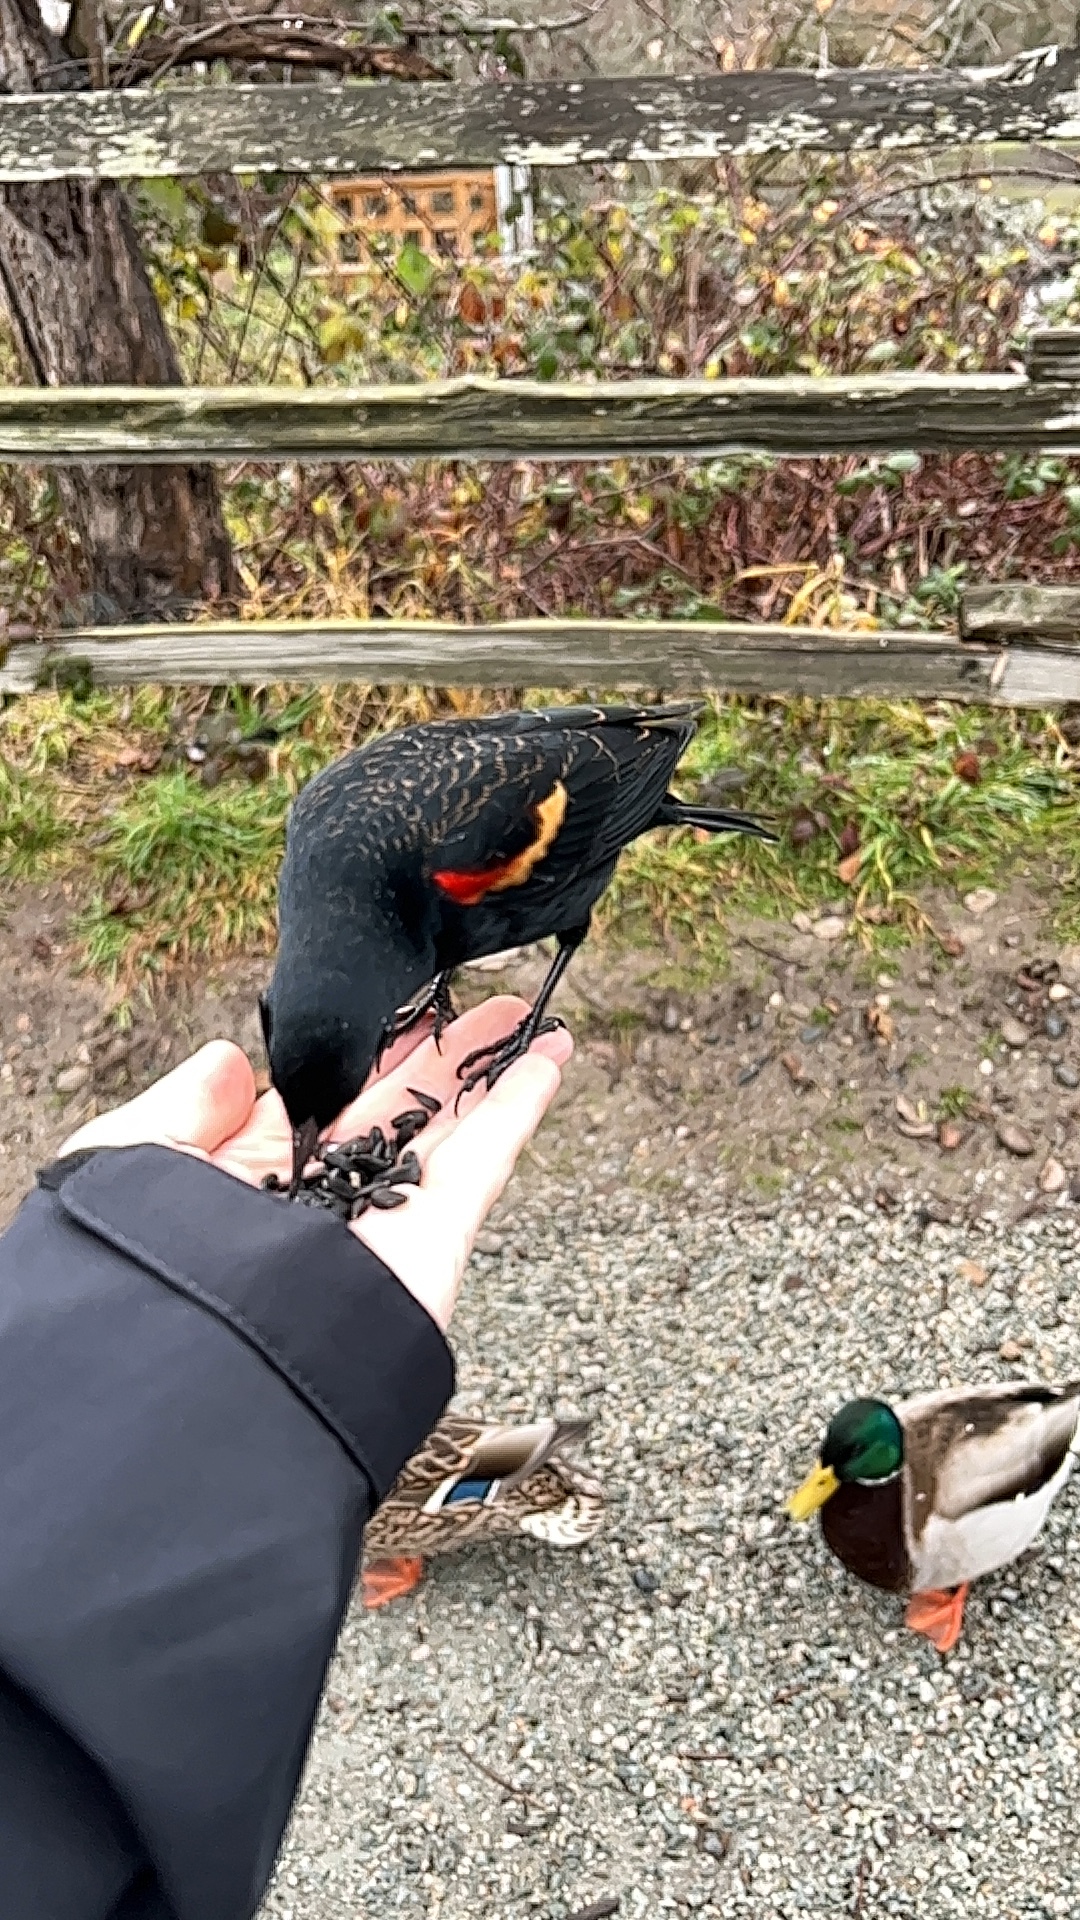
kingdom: Animalia
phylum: Chordata
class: Aves
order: Passeriformes
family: Icteridae
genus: Agelaius
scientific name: Agelaius phoeniceus
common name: Red-winged blackbird
